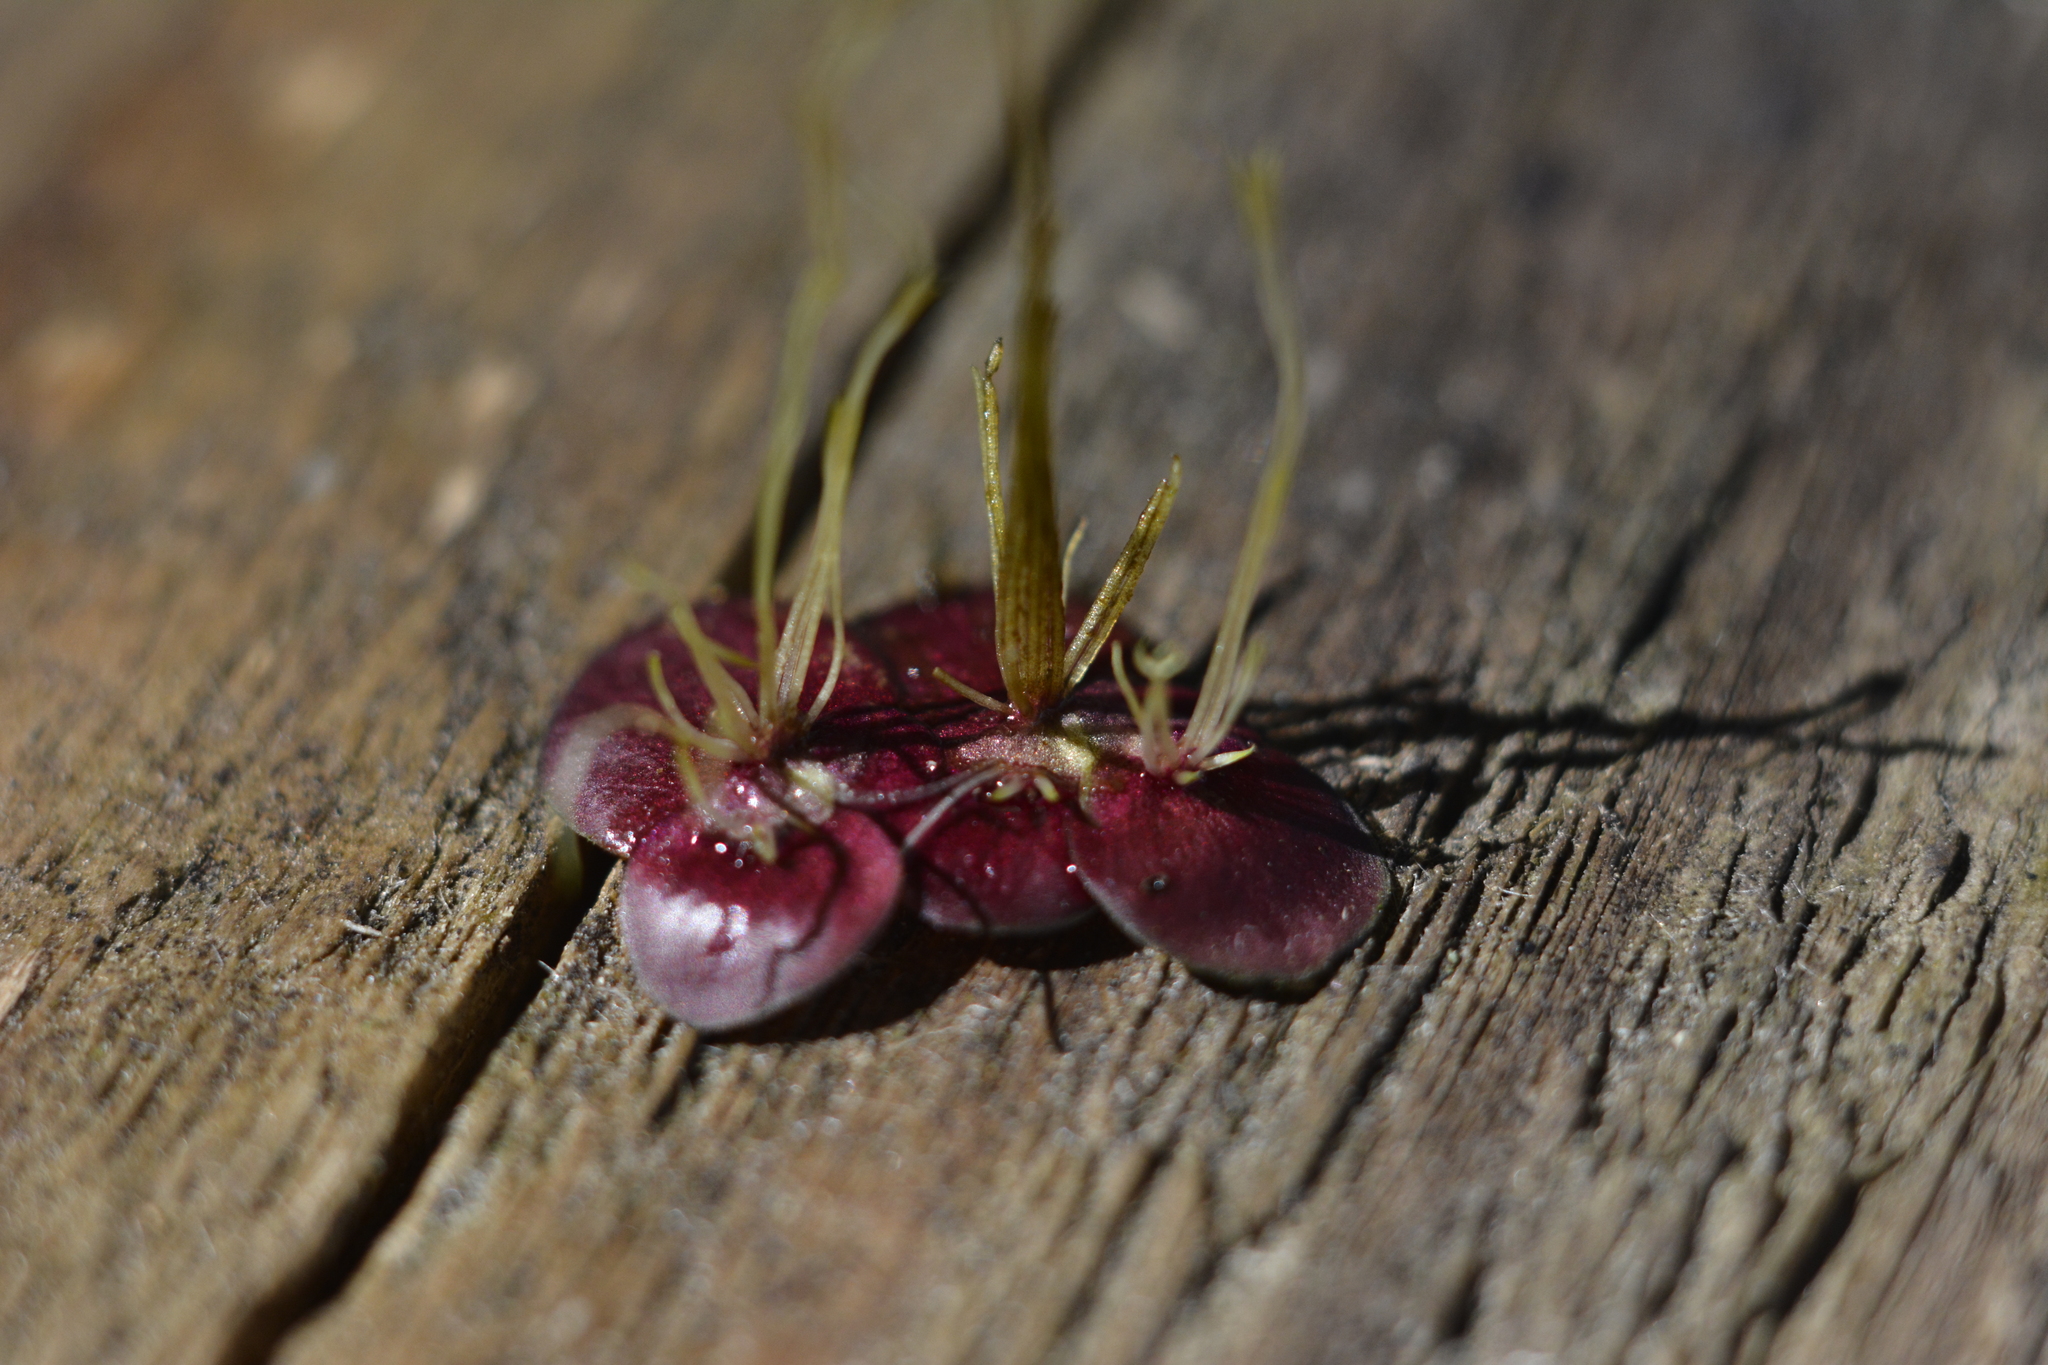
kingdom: Plantae
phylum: Tracheophyta
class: Liliopsida
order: Alismatales
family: Araceae
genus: Spirodela
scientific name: Spirodela polyrhiza
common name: Great duckweed
